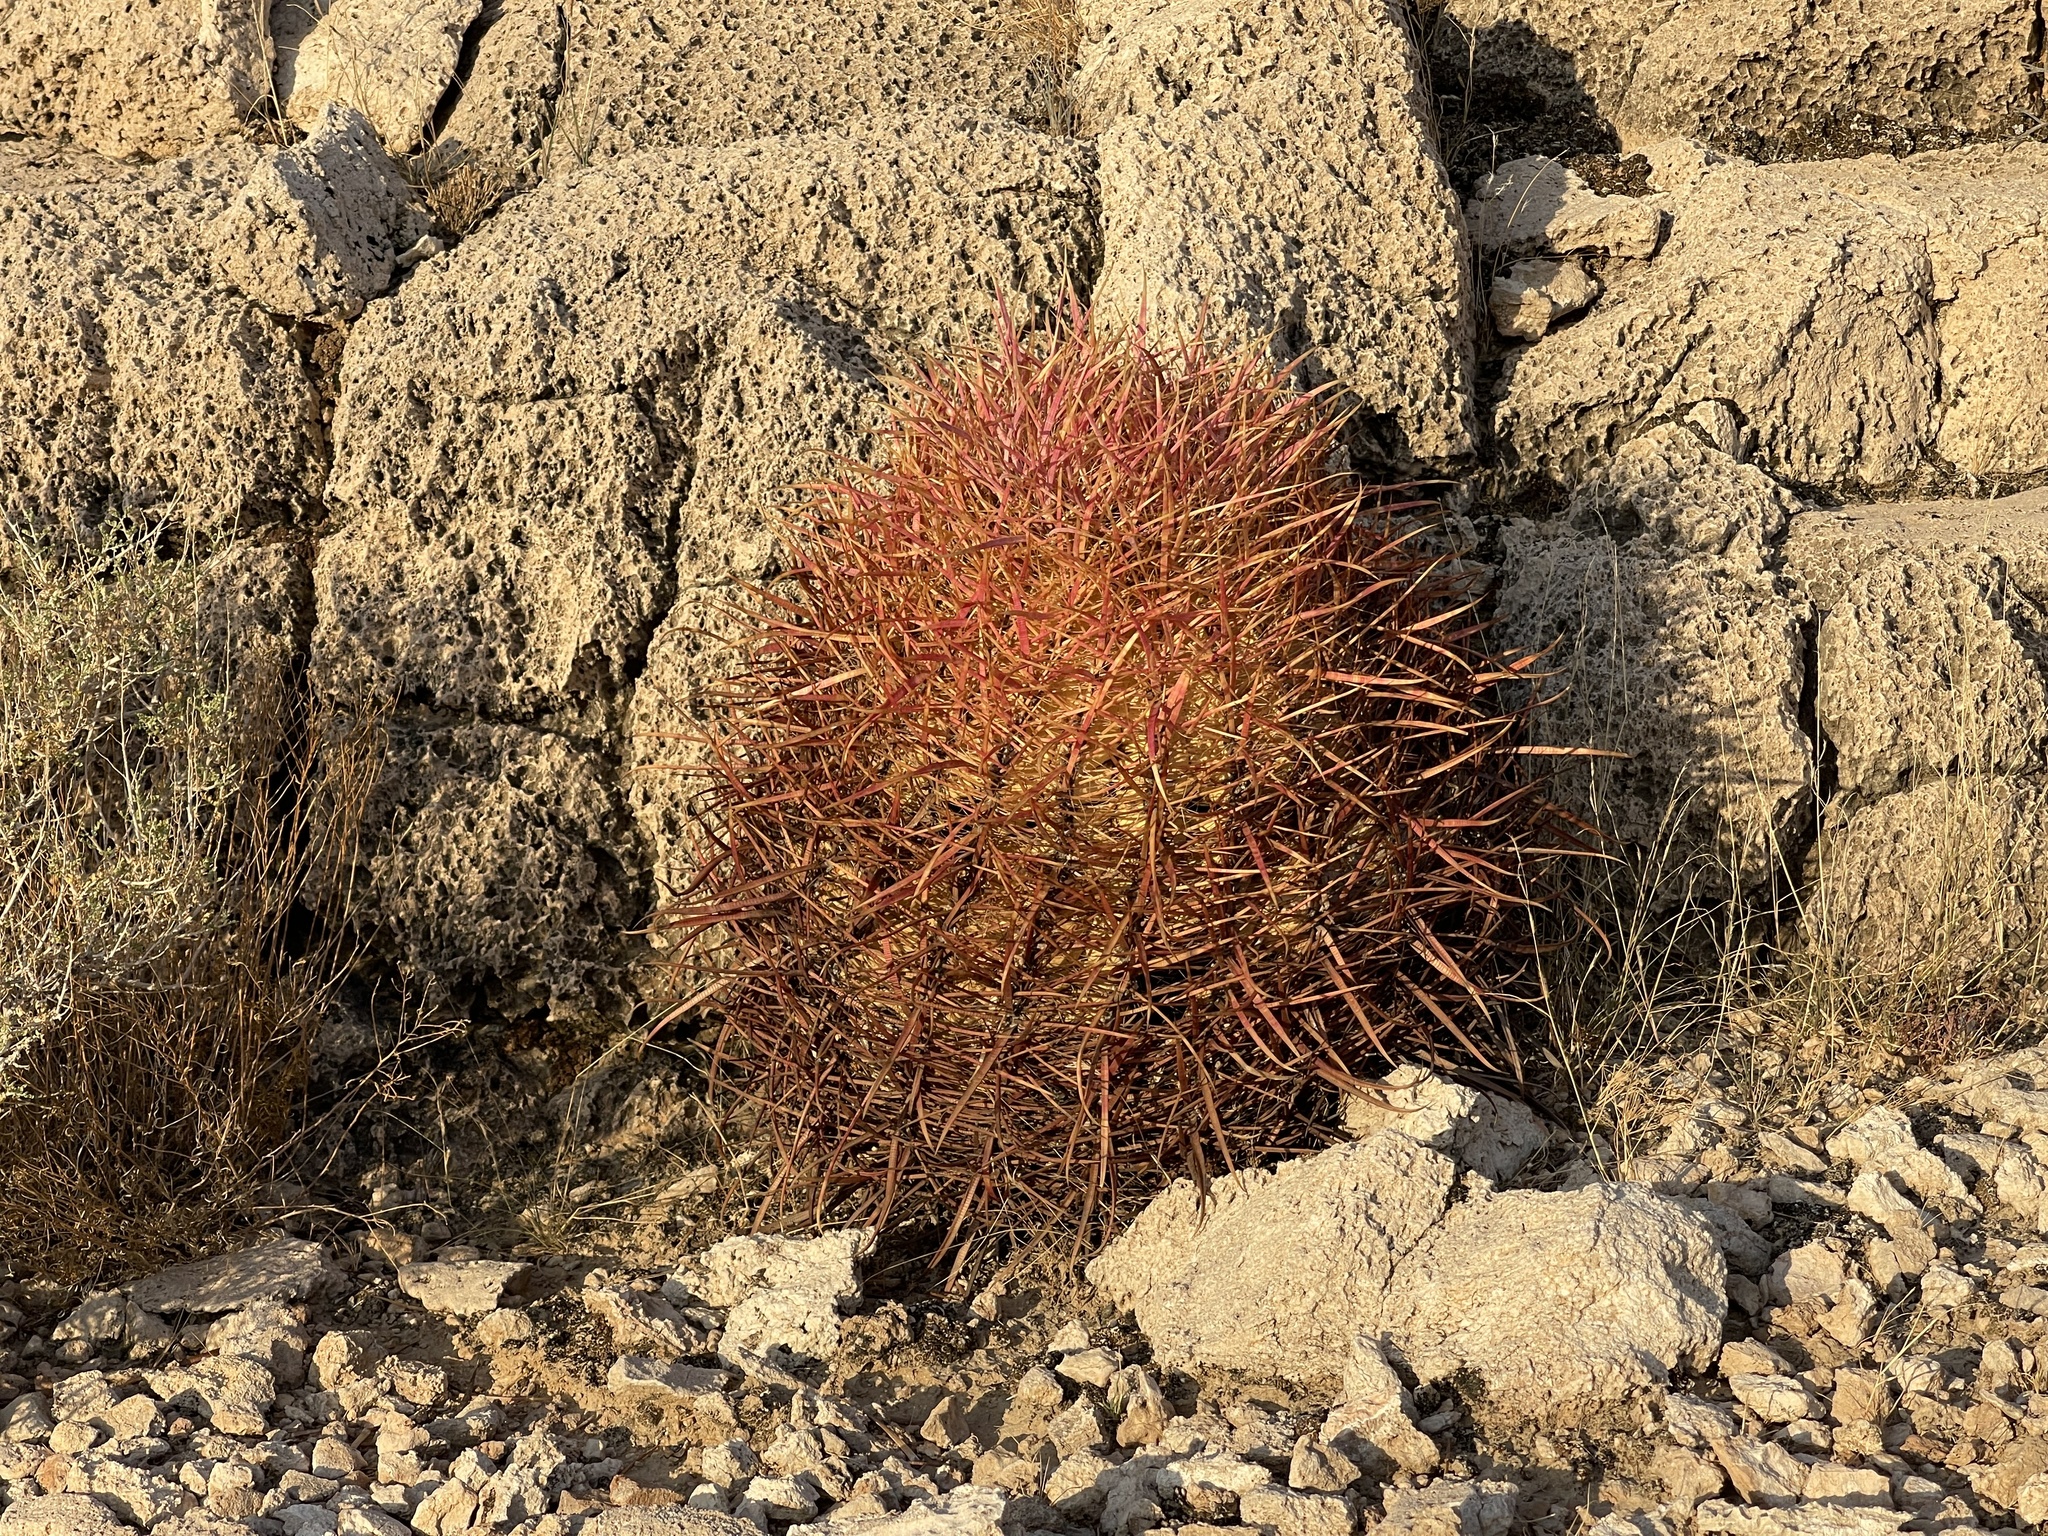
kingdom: Plantae
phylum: Tracheophyta
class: Magnoliopsida
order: Caryophyllales
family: Cactaceae
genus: Ferocactus
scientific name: Ferocactus cylindraceus
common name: California barrel cactus
